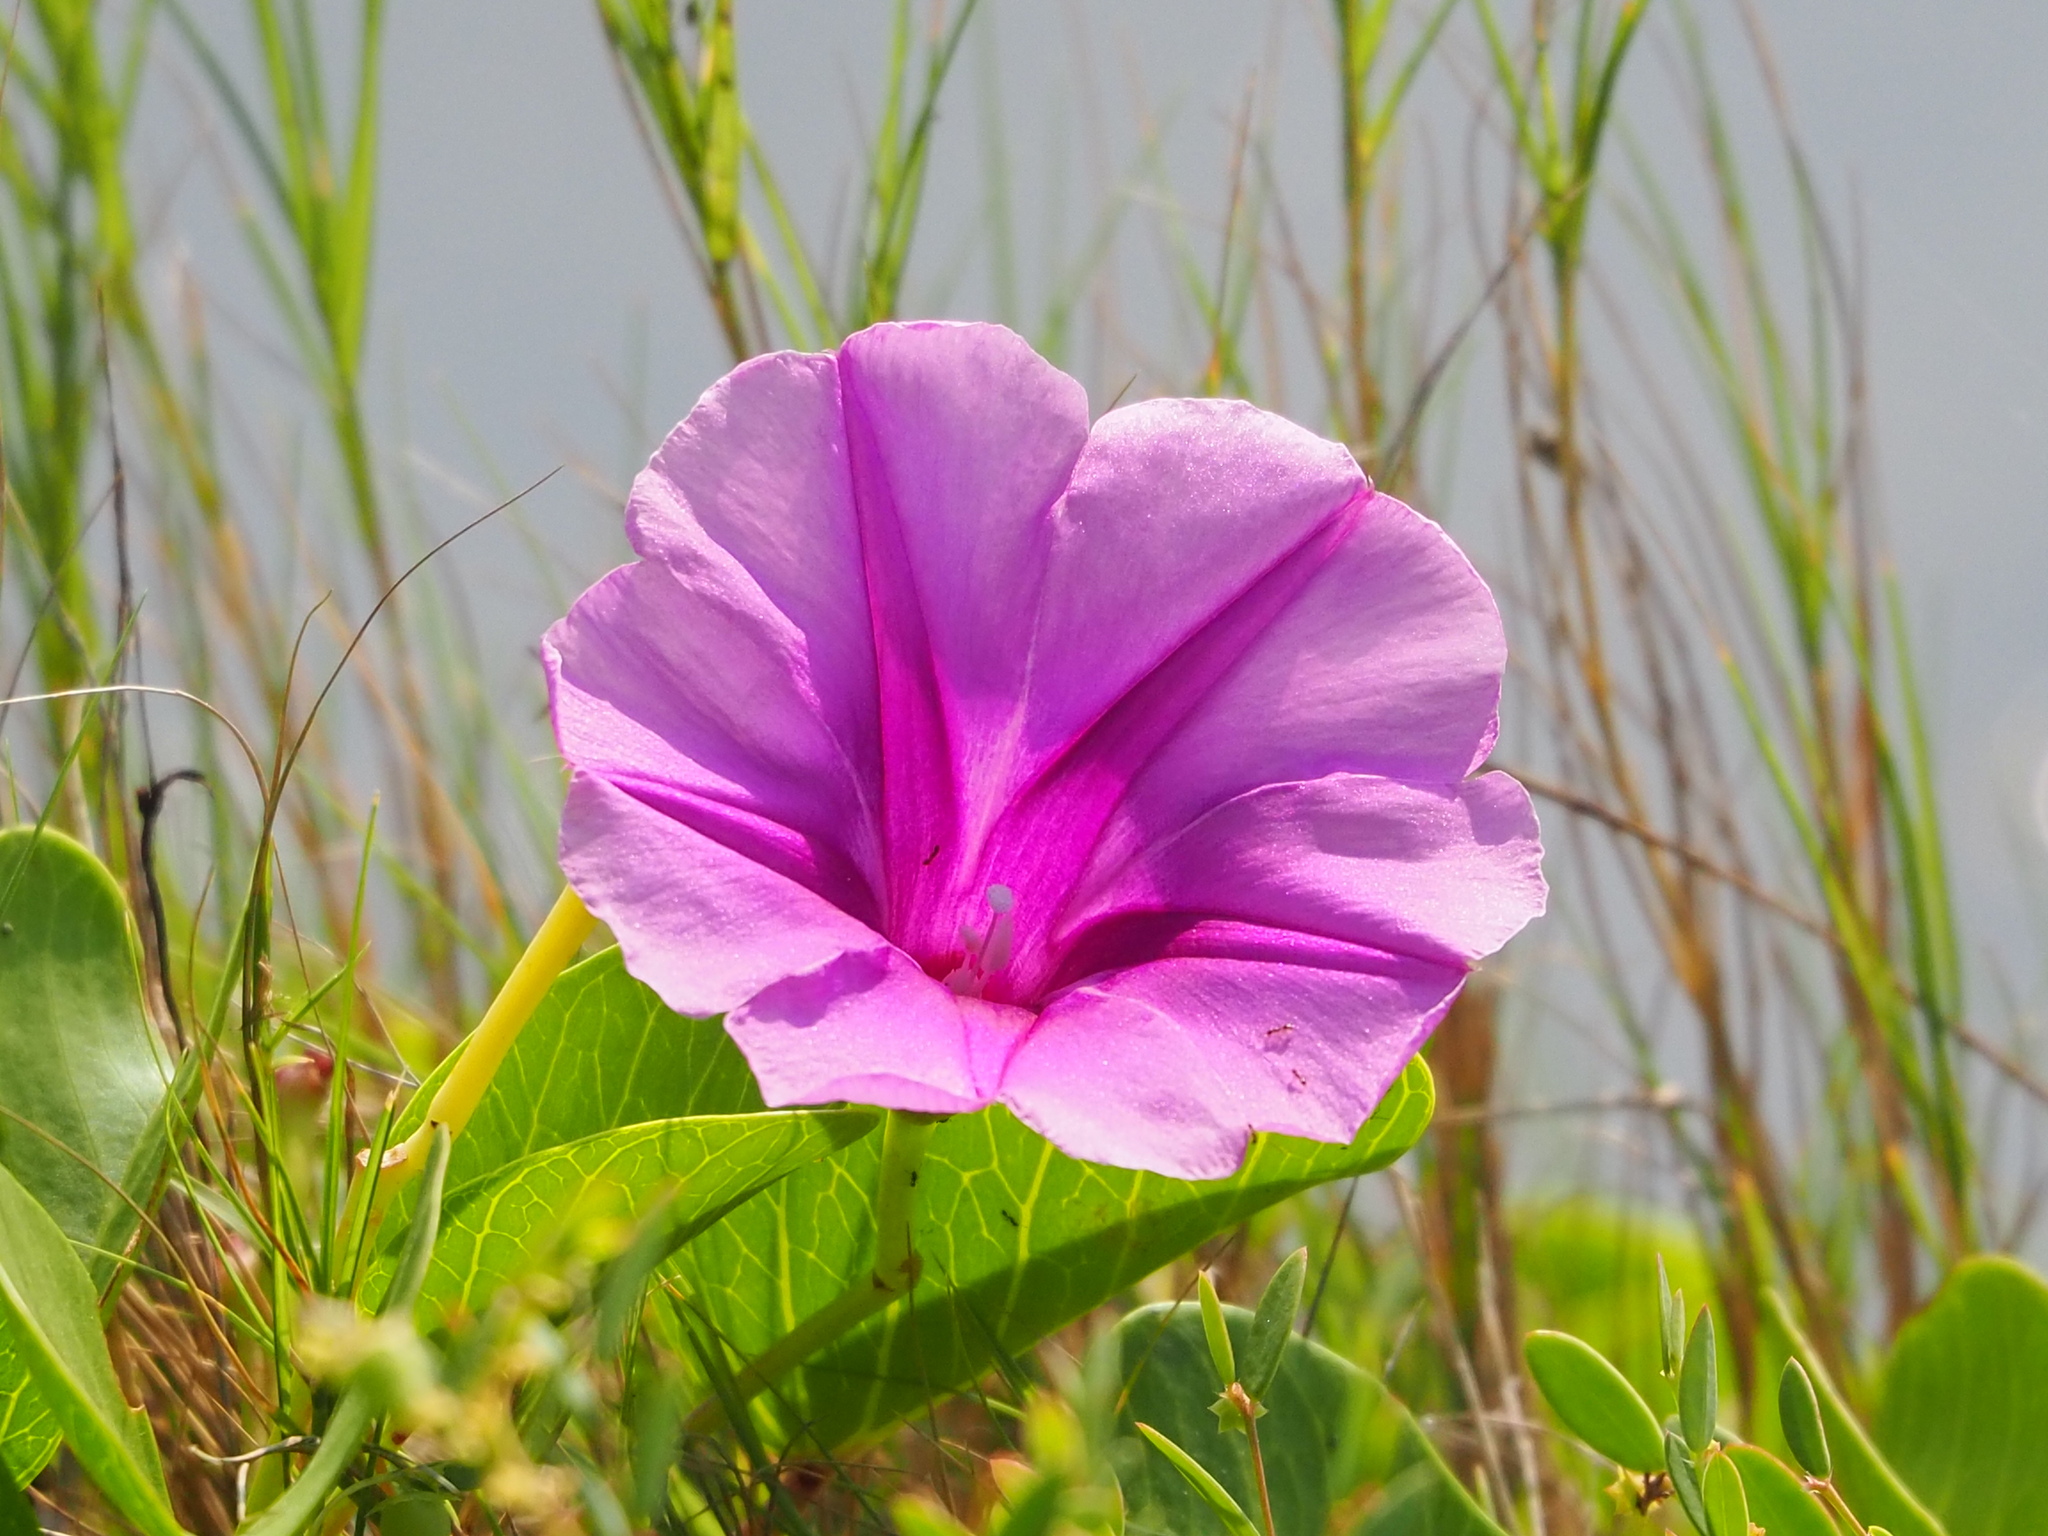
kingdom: Plantae
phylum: Tracheophyta
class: Magnoliopsida
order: Solanales
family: Convolvulaceae
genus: Ipomoea
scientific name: Ipomoea pes-caprae
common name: Beach morning glory
